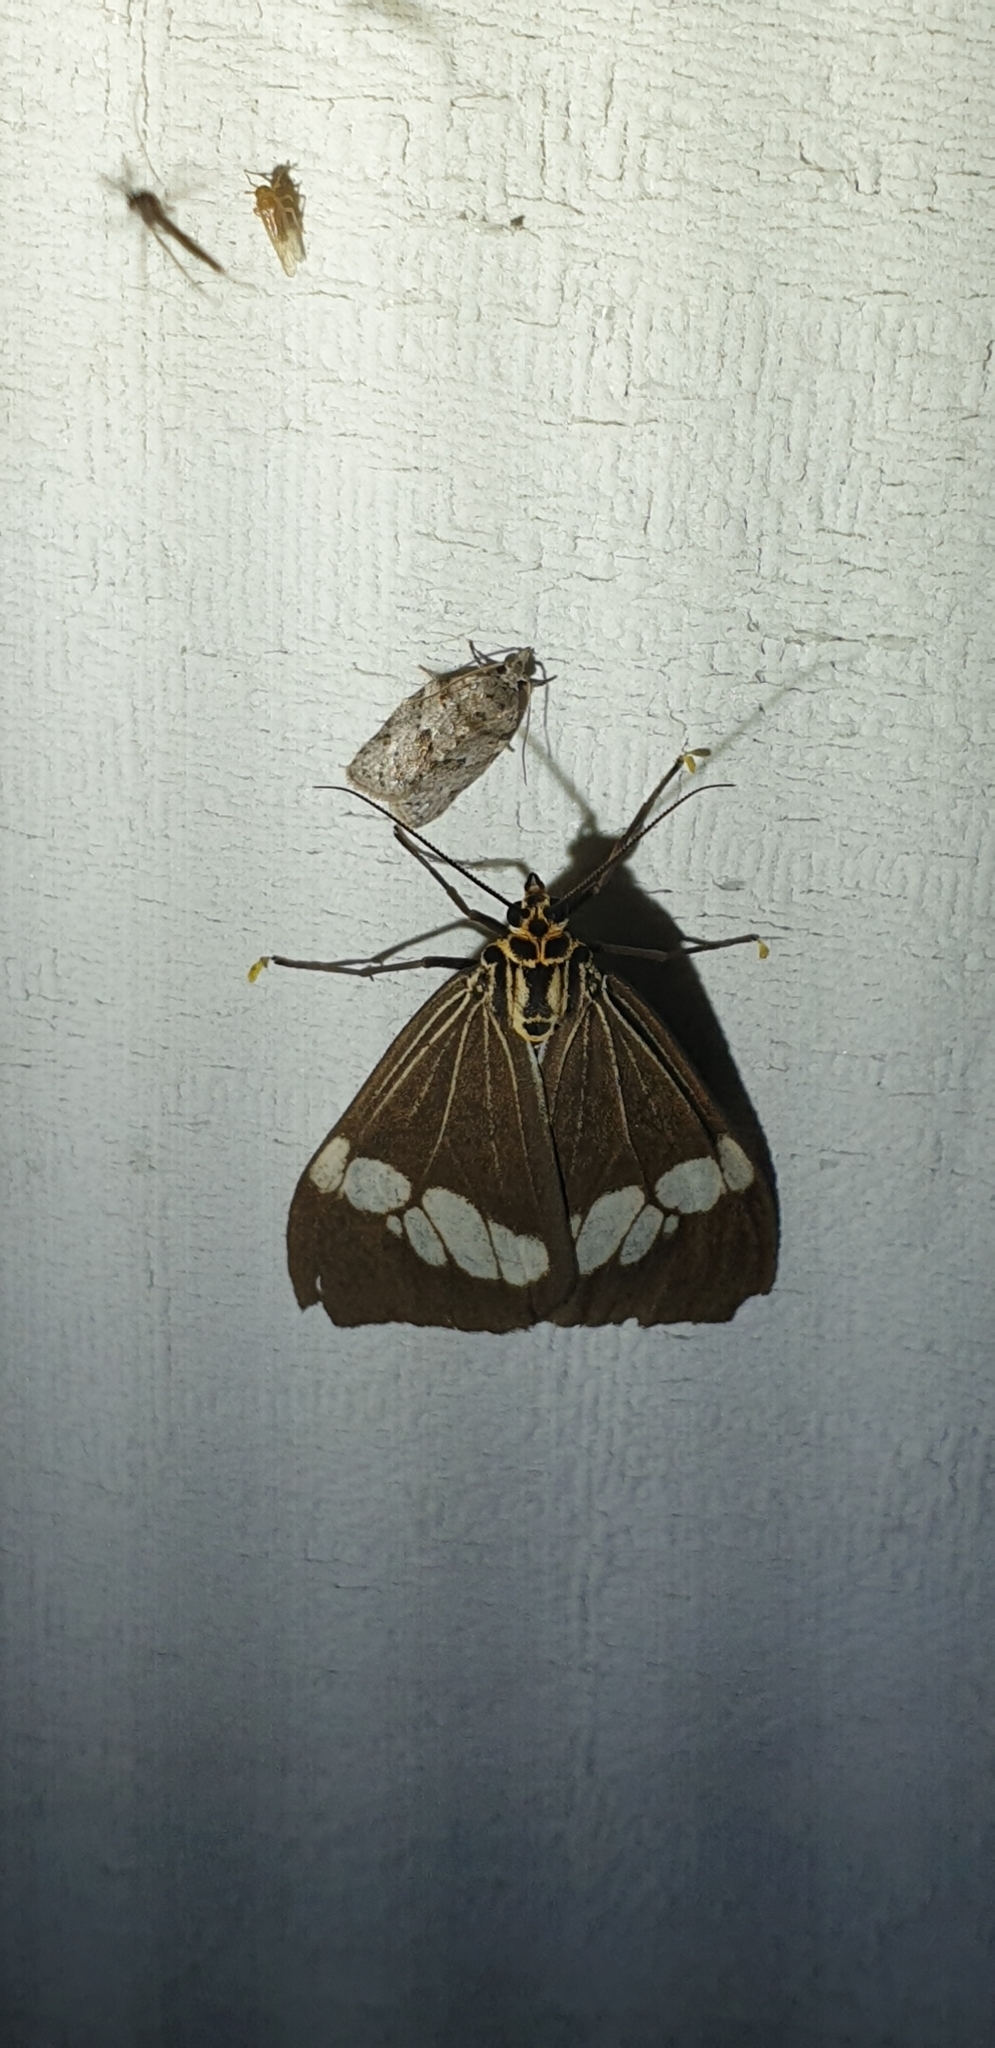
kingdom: Animalia
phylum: Arthropoda
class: Insecta
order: Lepidoptera
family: Erebidae
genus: Nyctemera
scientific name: Nyctemera baulus
